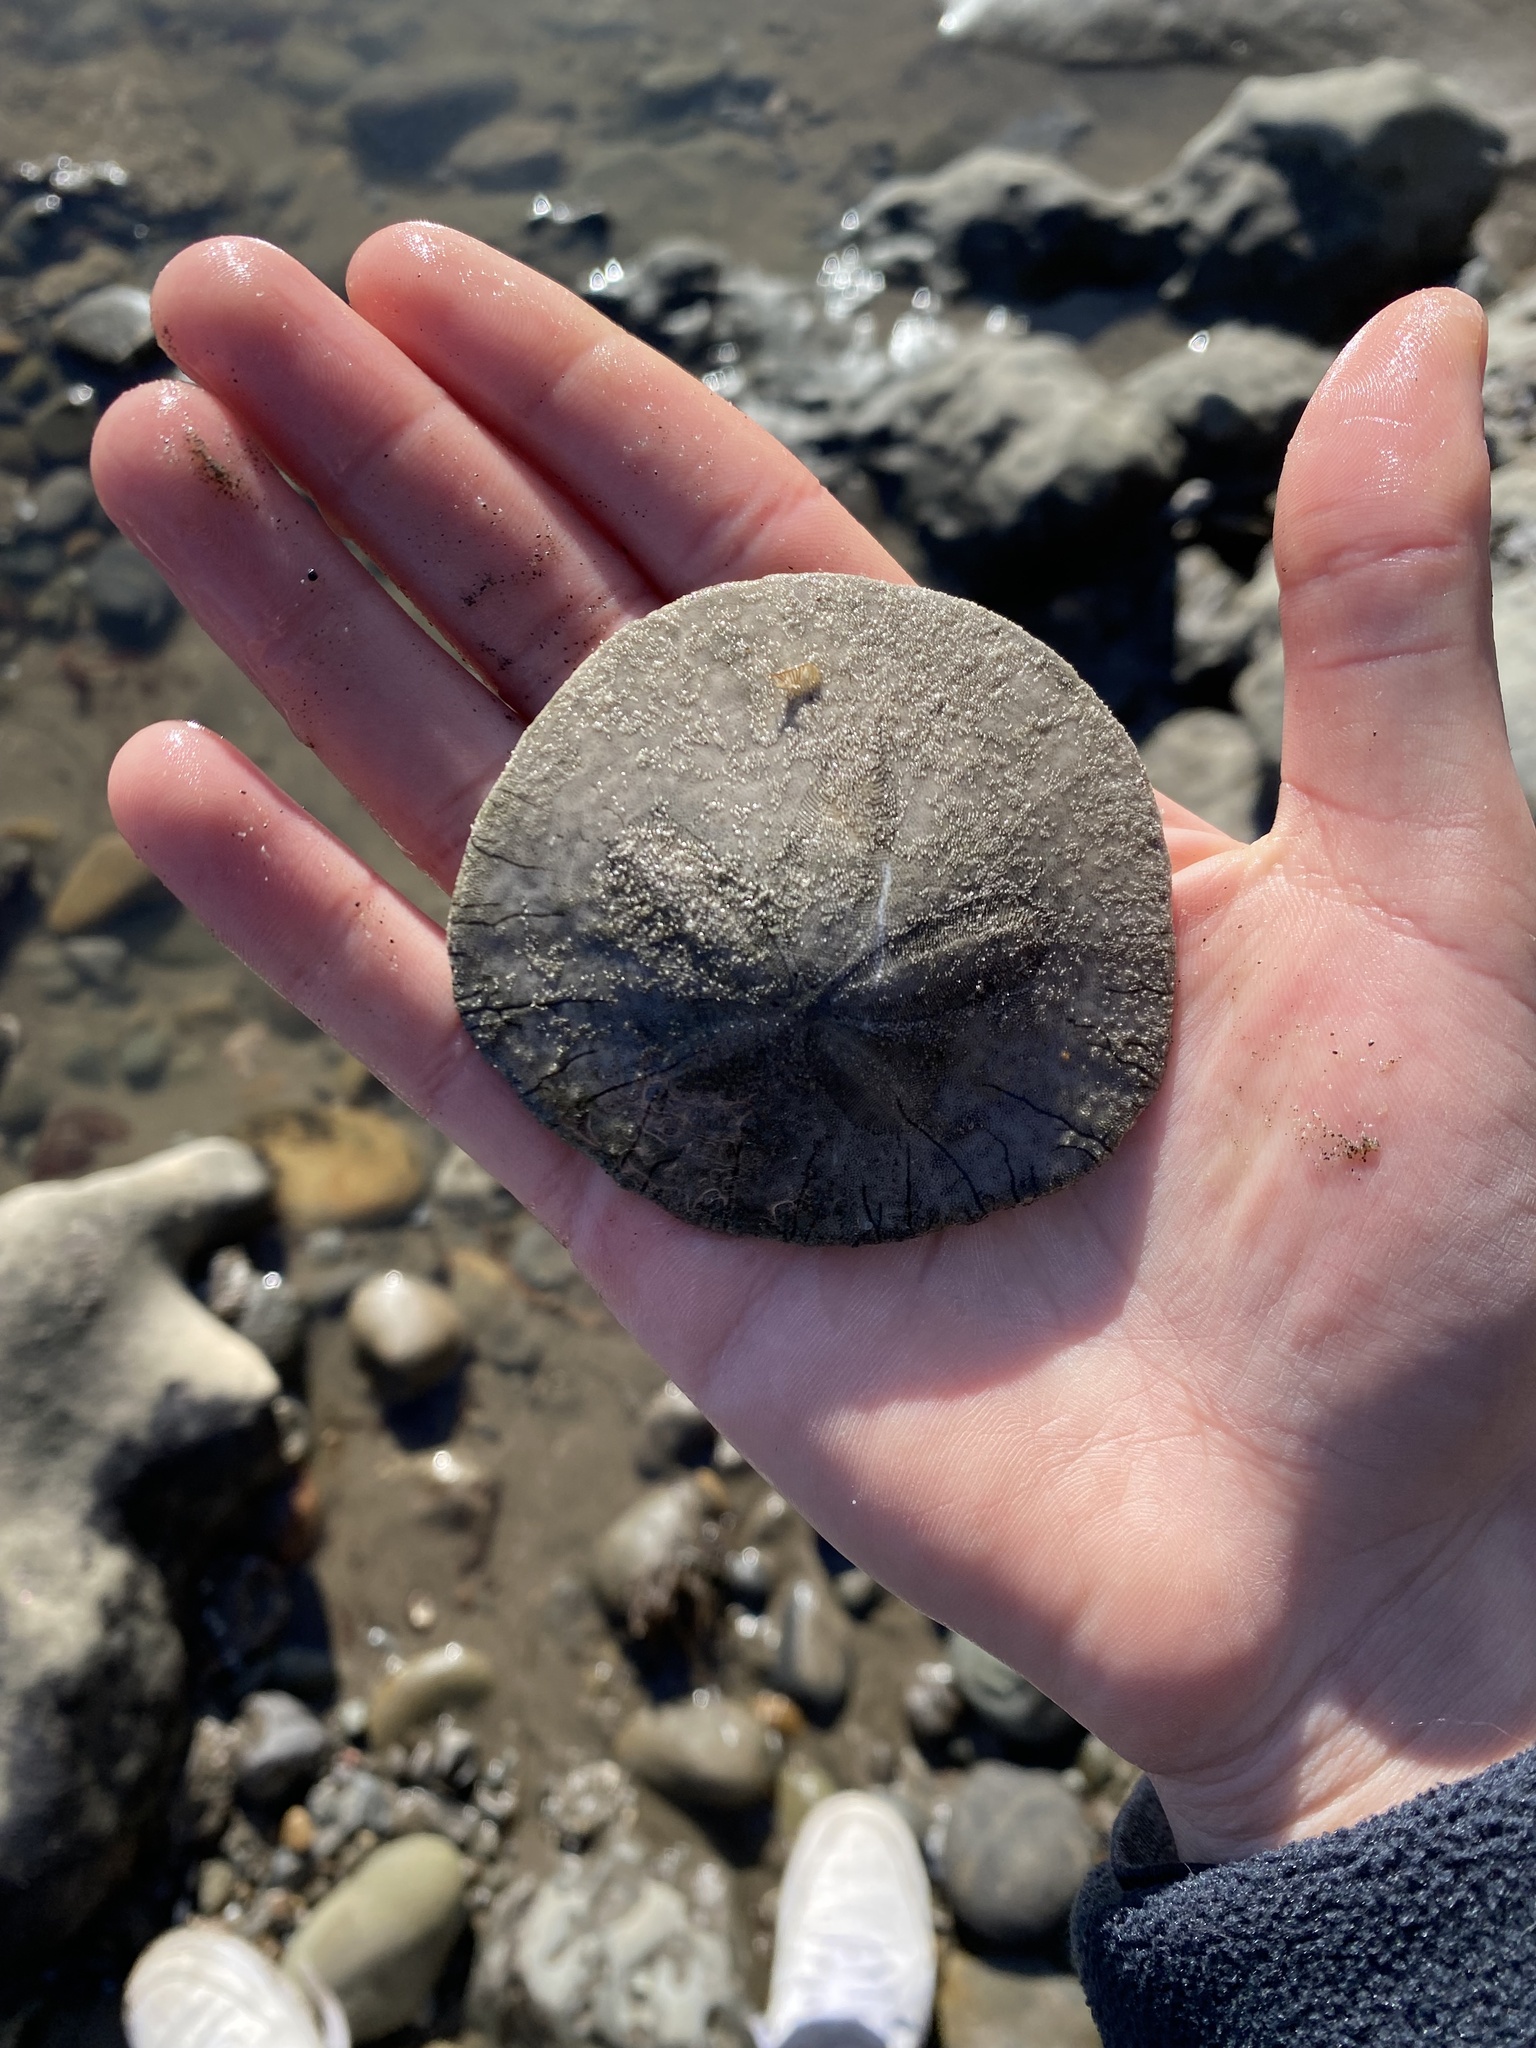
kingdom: Animalia
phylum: Echinodermata
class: Echinoidea
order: Echinolampadacea
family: Dendrasteridae
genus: Dendraster
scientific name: Dendraster excentricus
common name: Eccentric sand dollar sea urchin
